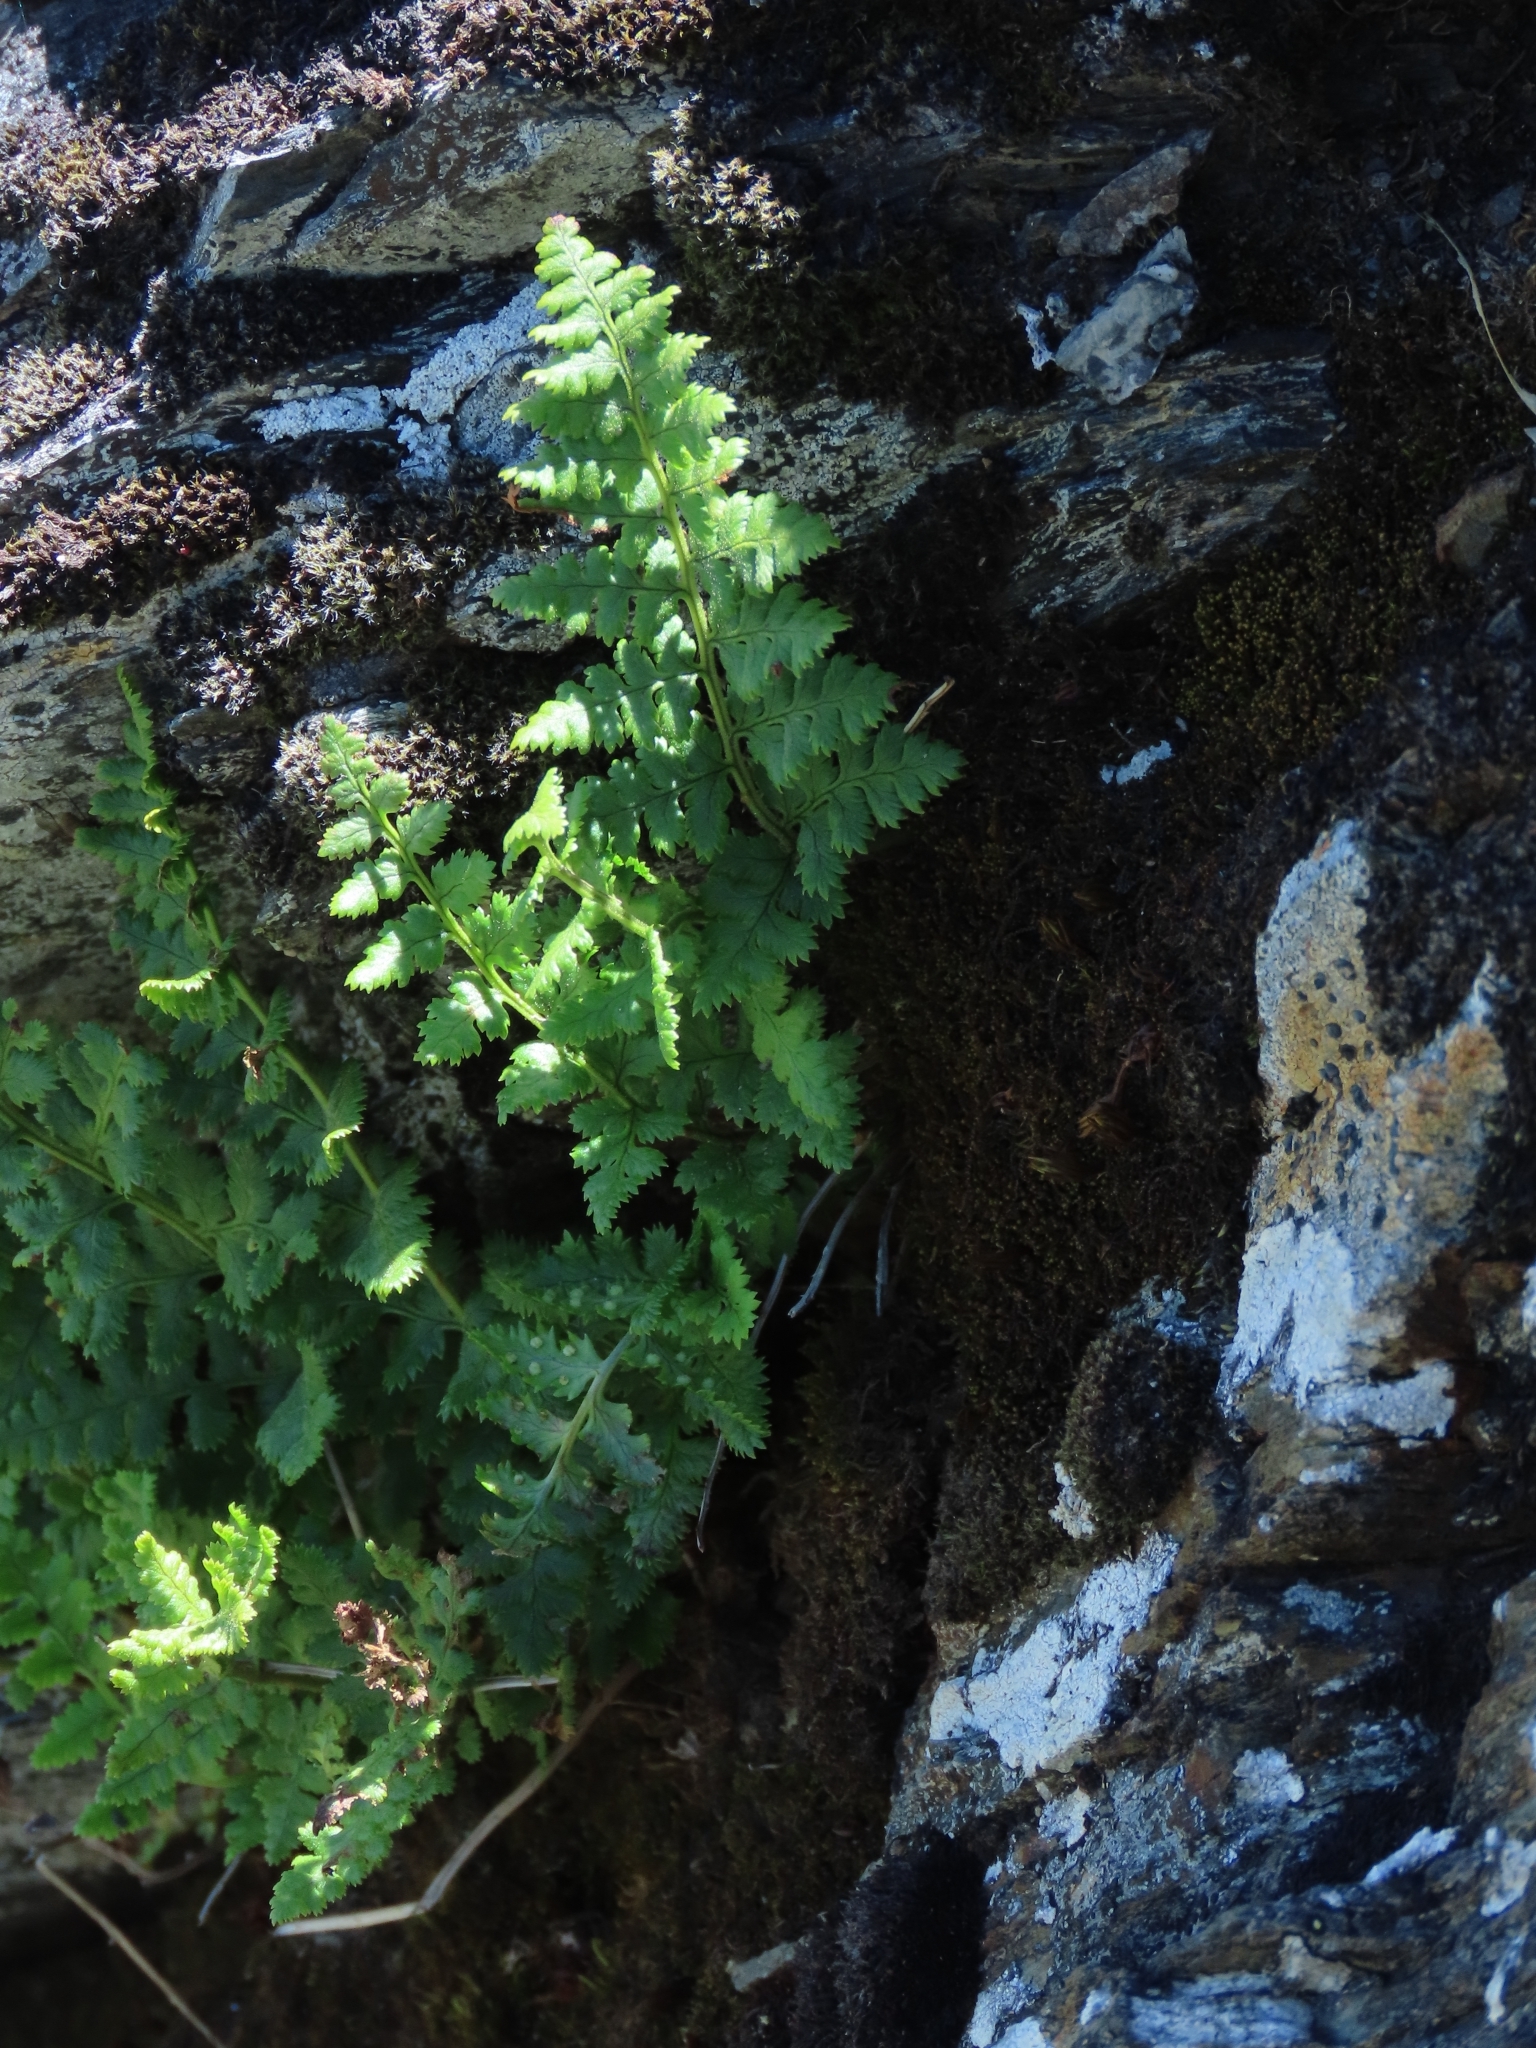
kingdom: Plantae
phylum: Tracheophyta
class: Polypodiopsida
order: Polypodiales
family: Dryopteridaceae
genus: Dryopteris
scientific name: Dryopteris alpestris
